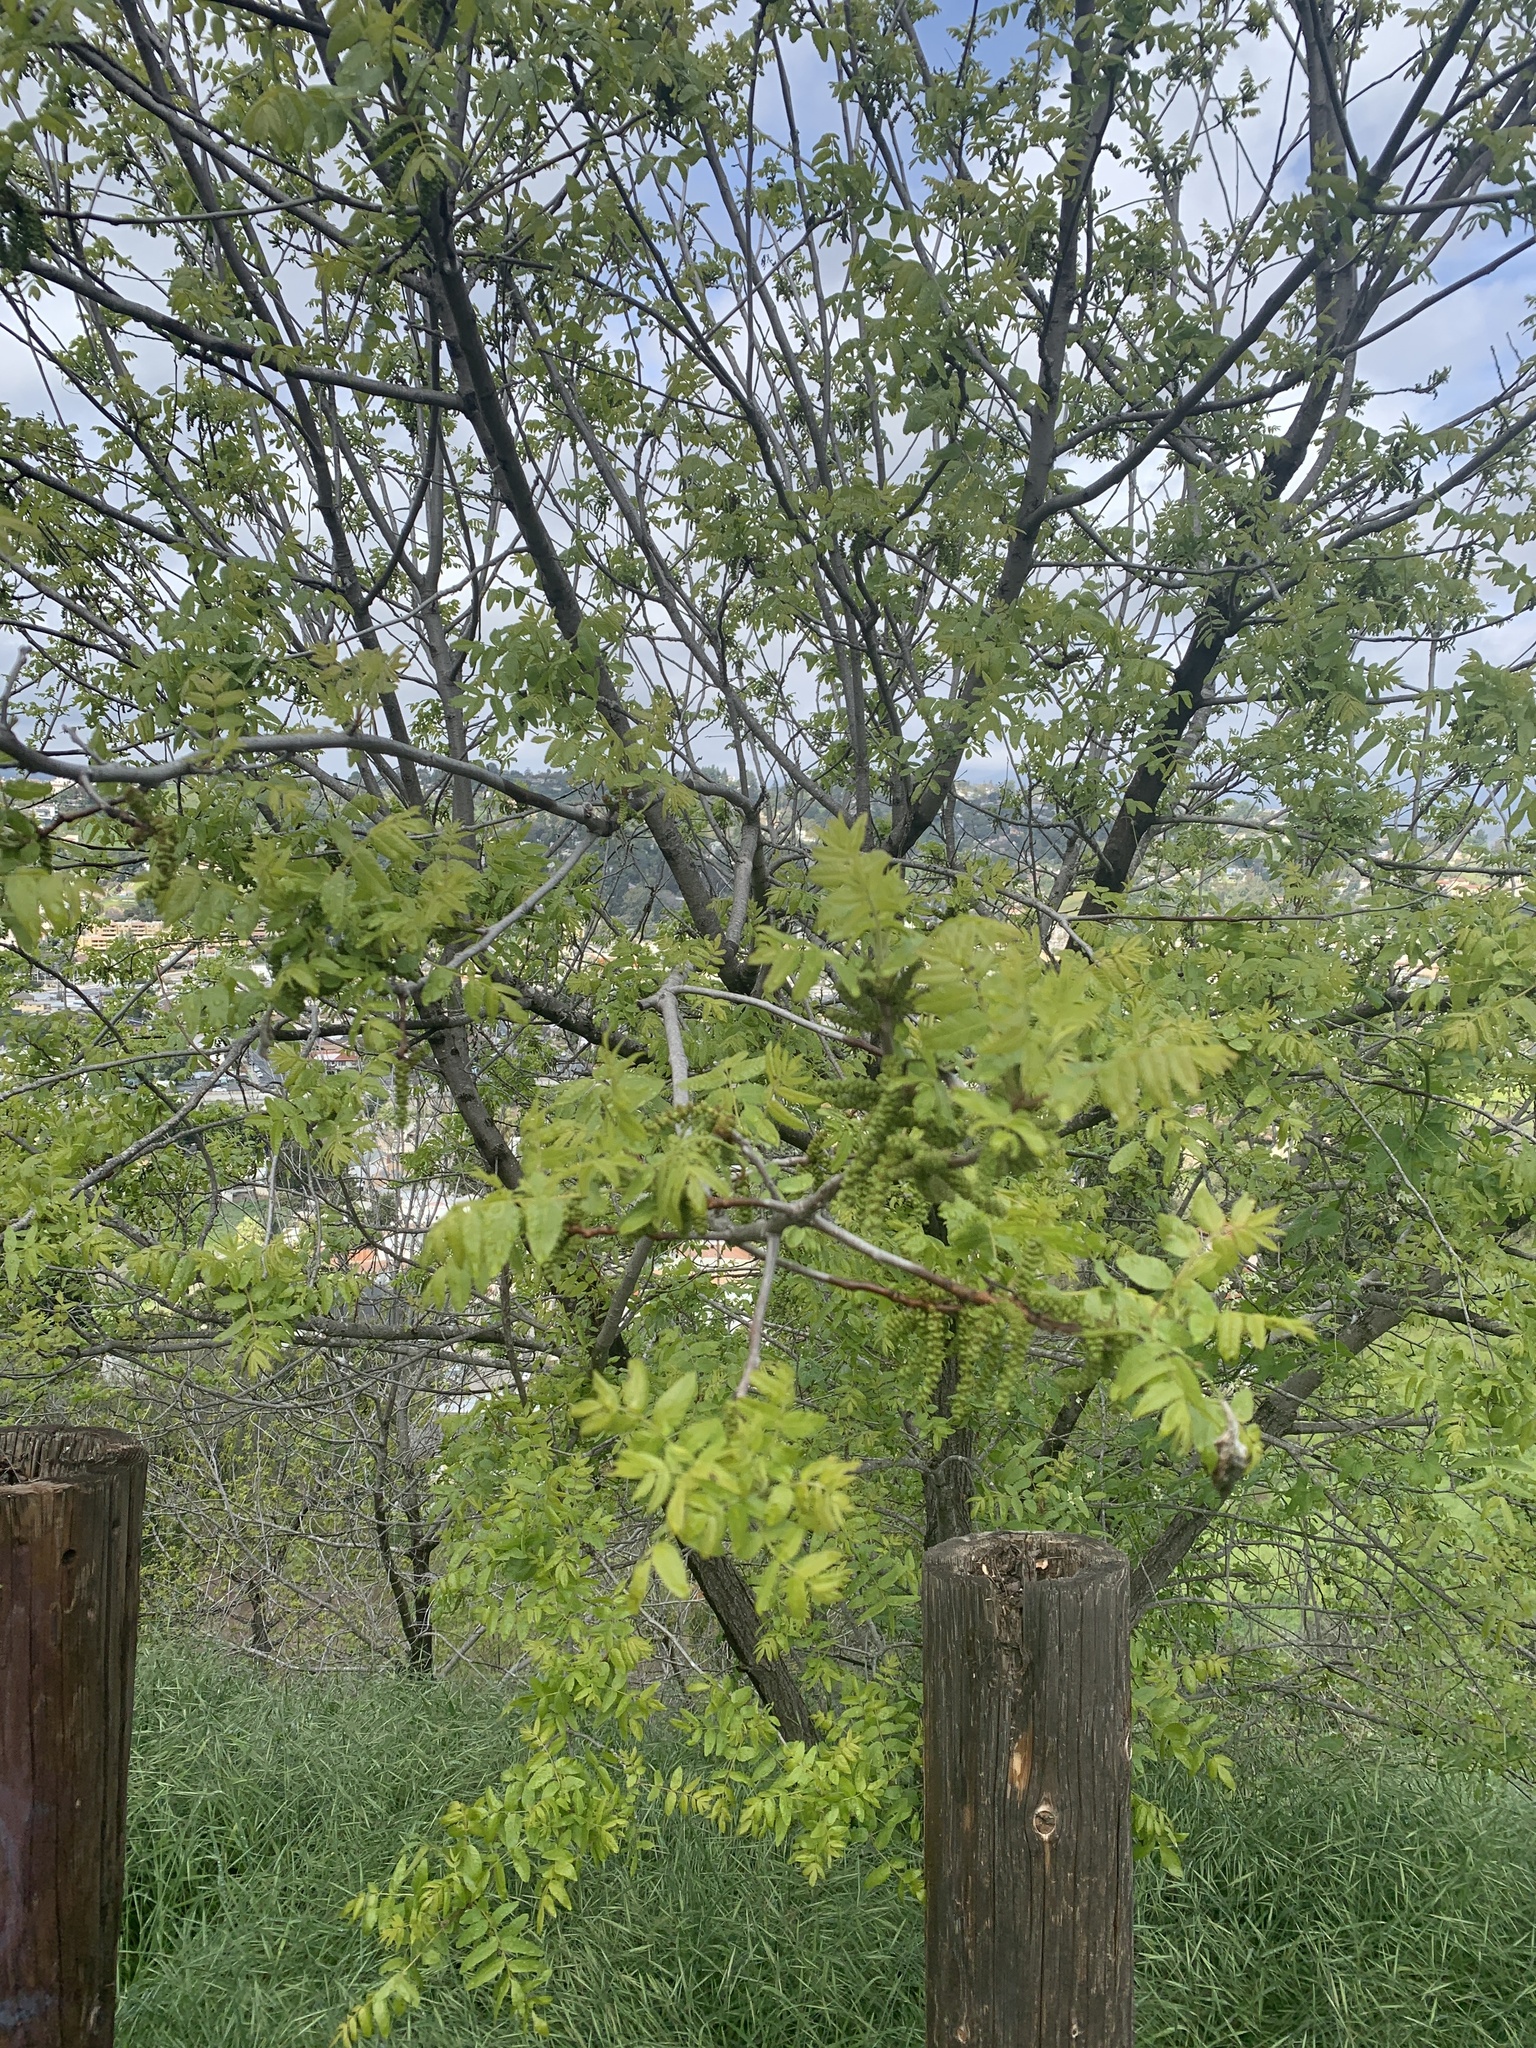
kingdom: Plantae
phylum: Tracheophyta
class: Magnoliopsida
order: Fagales
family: Juglandaceae
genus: Juglans
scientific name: Juglans californica
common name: Southern california black walnut
